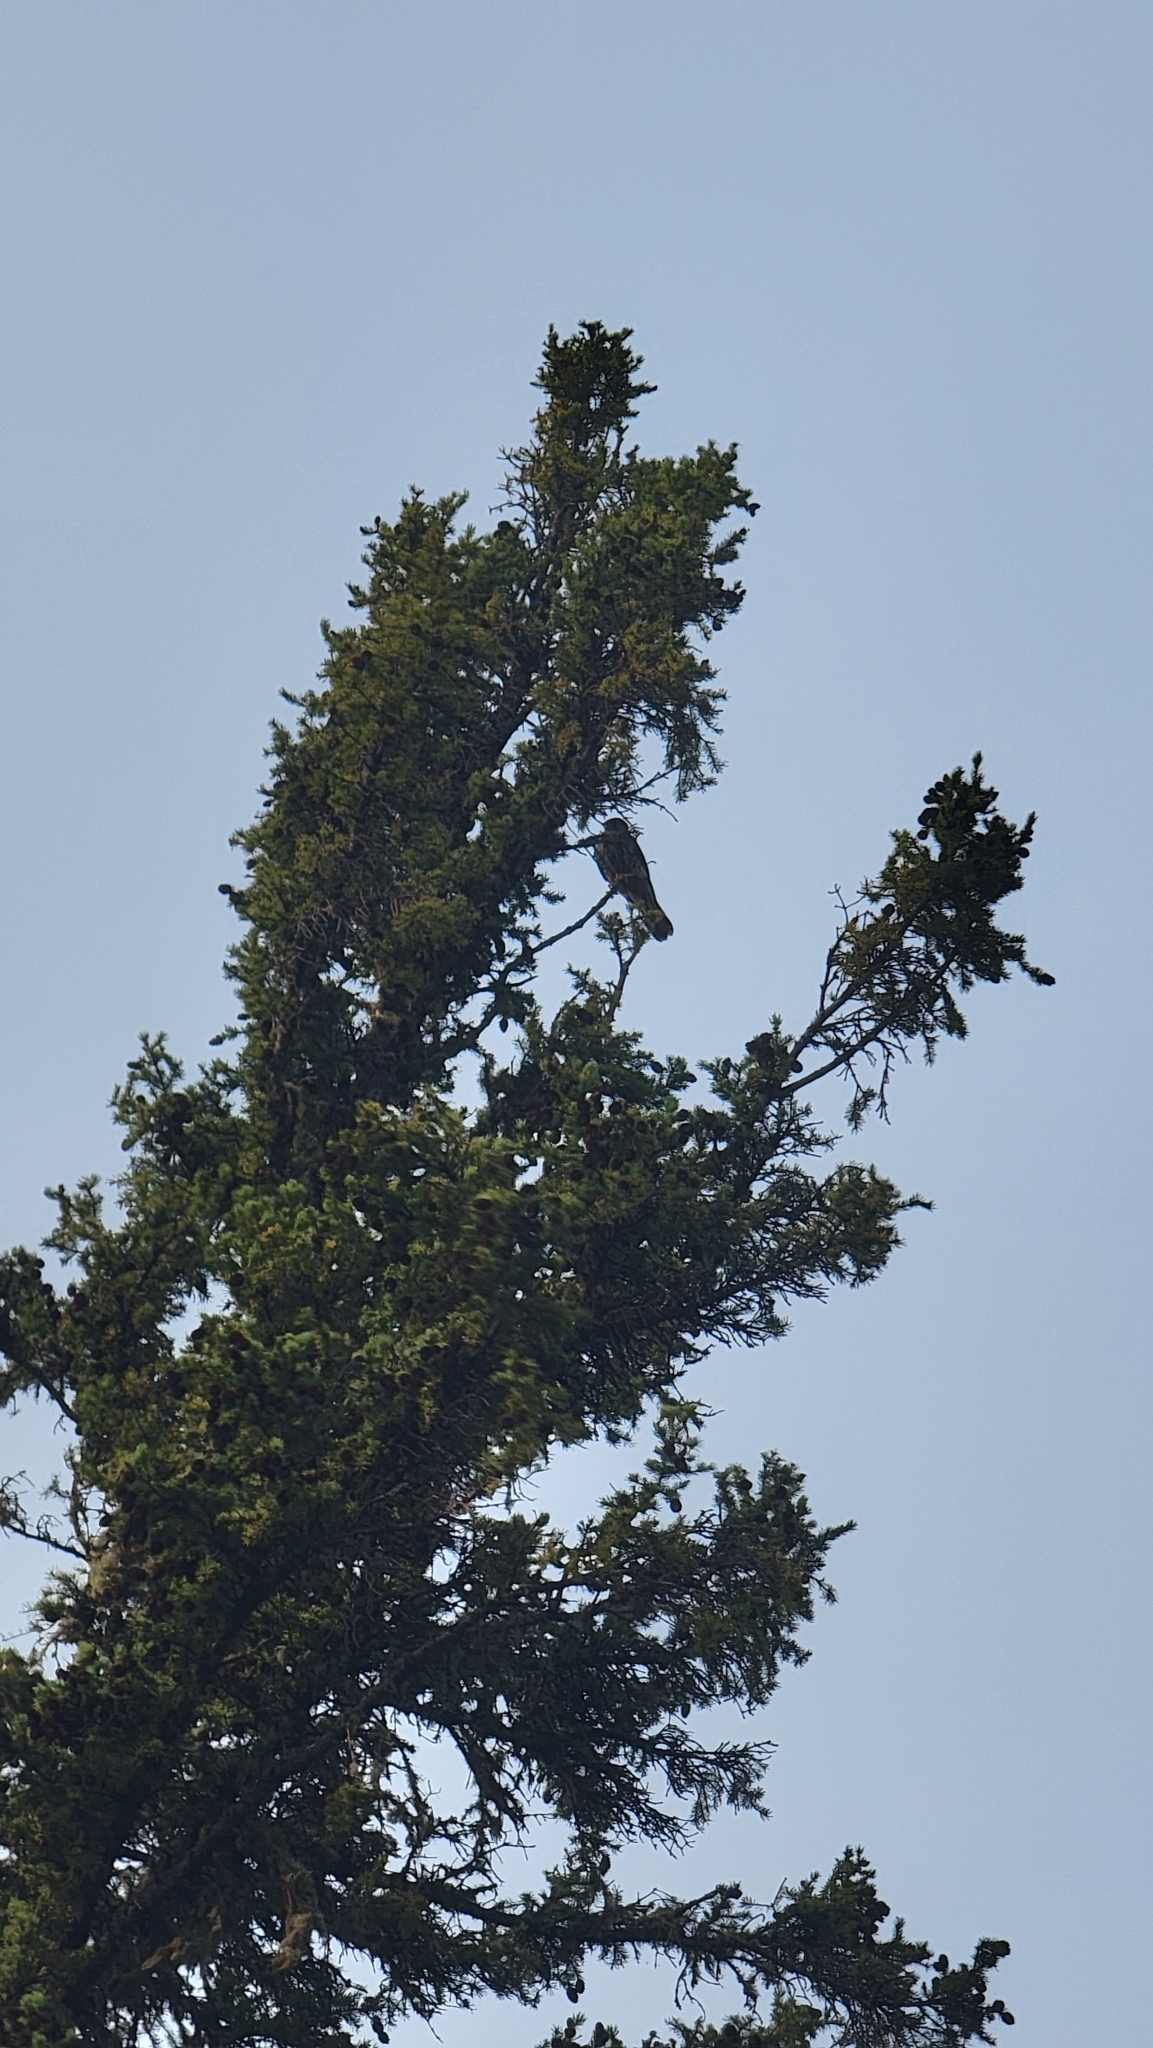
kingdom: Animalia
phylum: Chordata
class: Aves
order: Falconiformes
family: Falconidae
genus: Falco
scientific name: Falco columbarius
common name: Merlin
